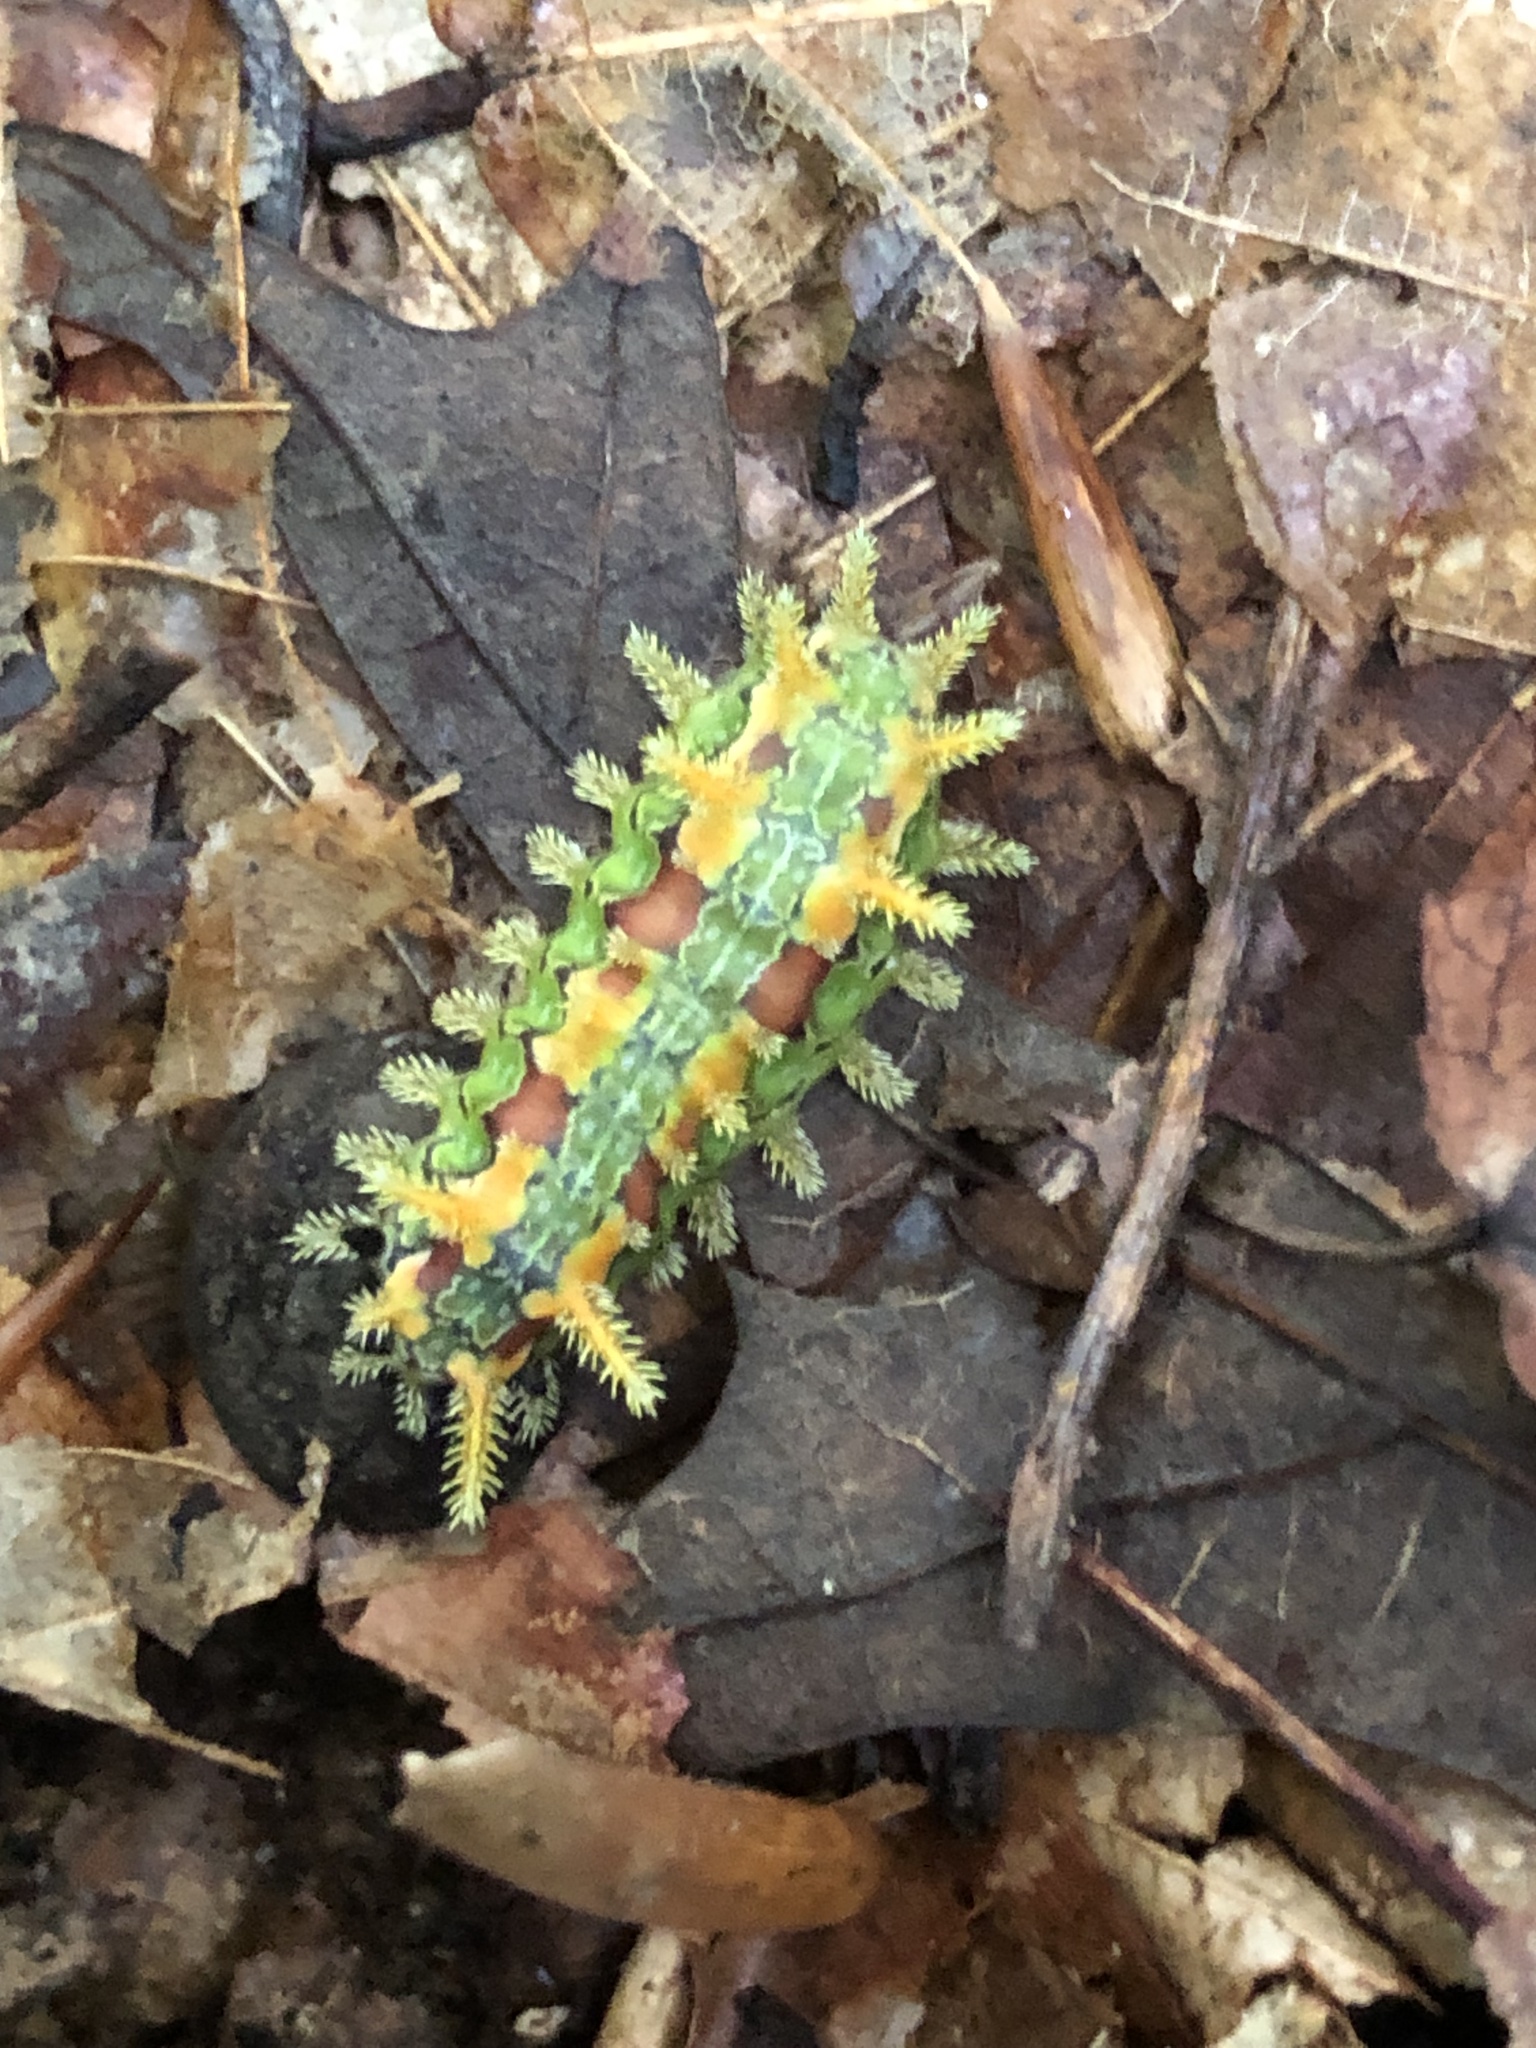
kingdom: Animalia
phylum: Arthropoda
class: Insecta
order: Lepidoptera
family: Limacodidae
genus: Euclea
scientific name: Euclea delphinii
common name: Spiny oak-slug moth
